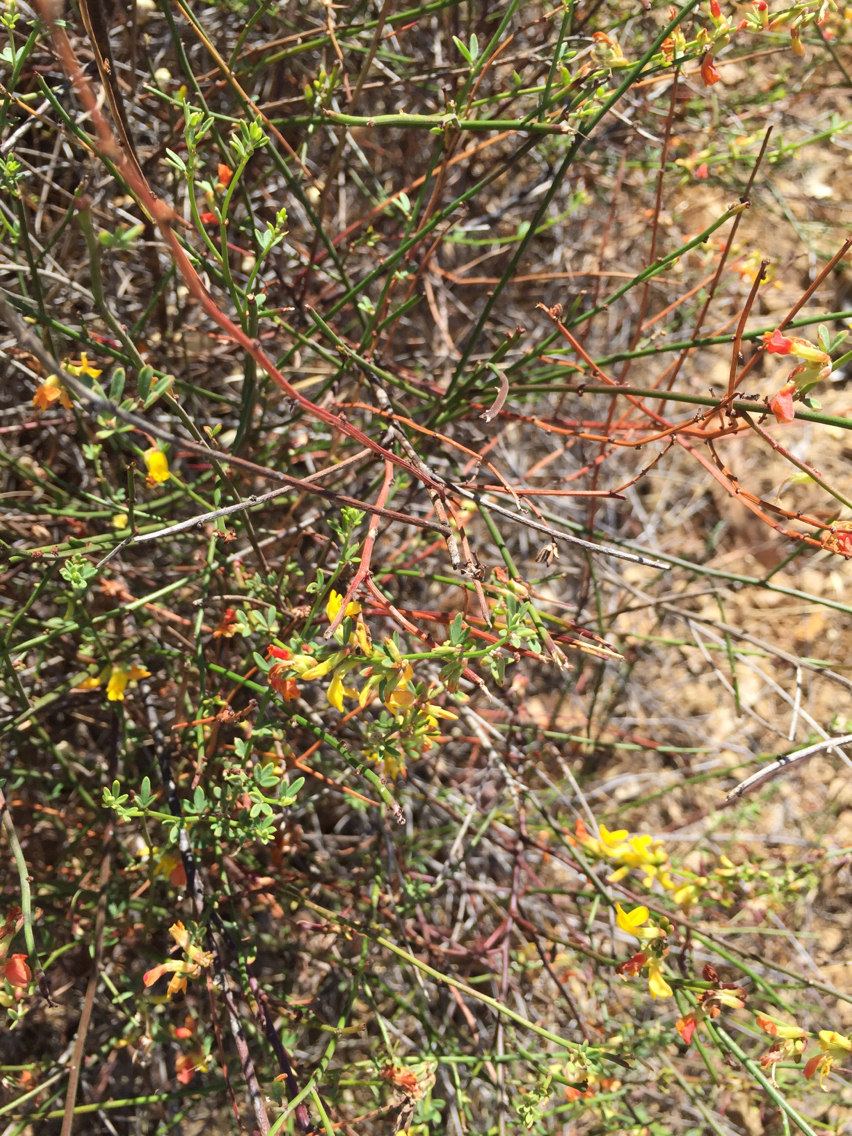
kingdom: Plantae
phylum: Tracheophyta
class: Magnoliopsida
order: Fabales
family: Fabaceae
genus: Acmispon
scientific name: Acmispon glaber
